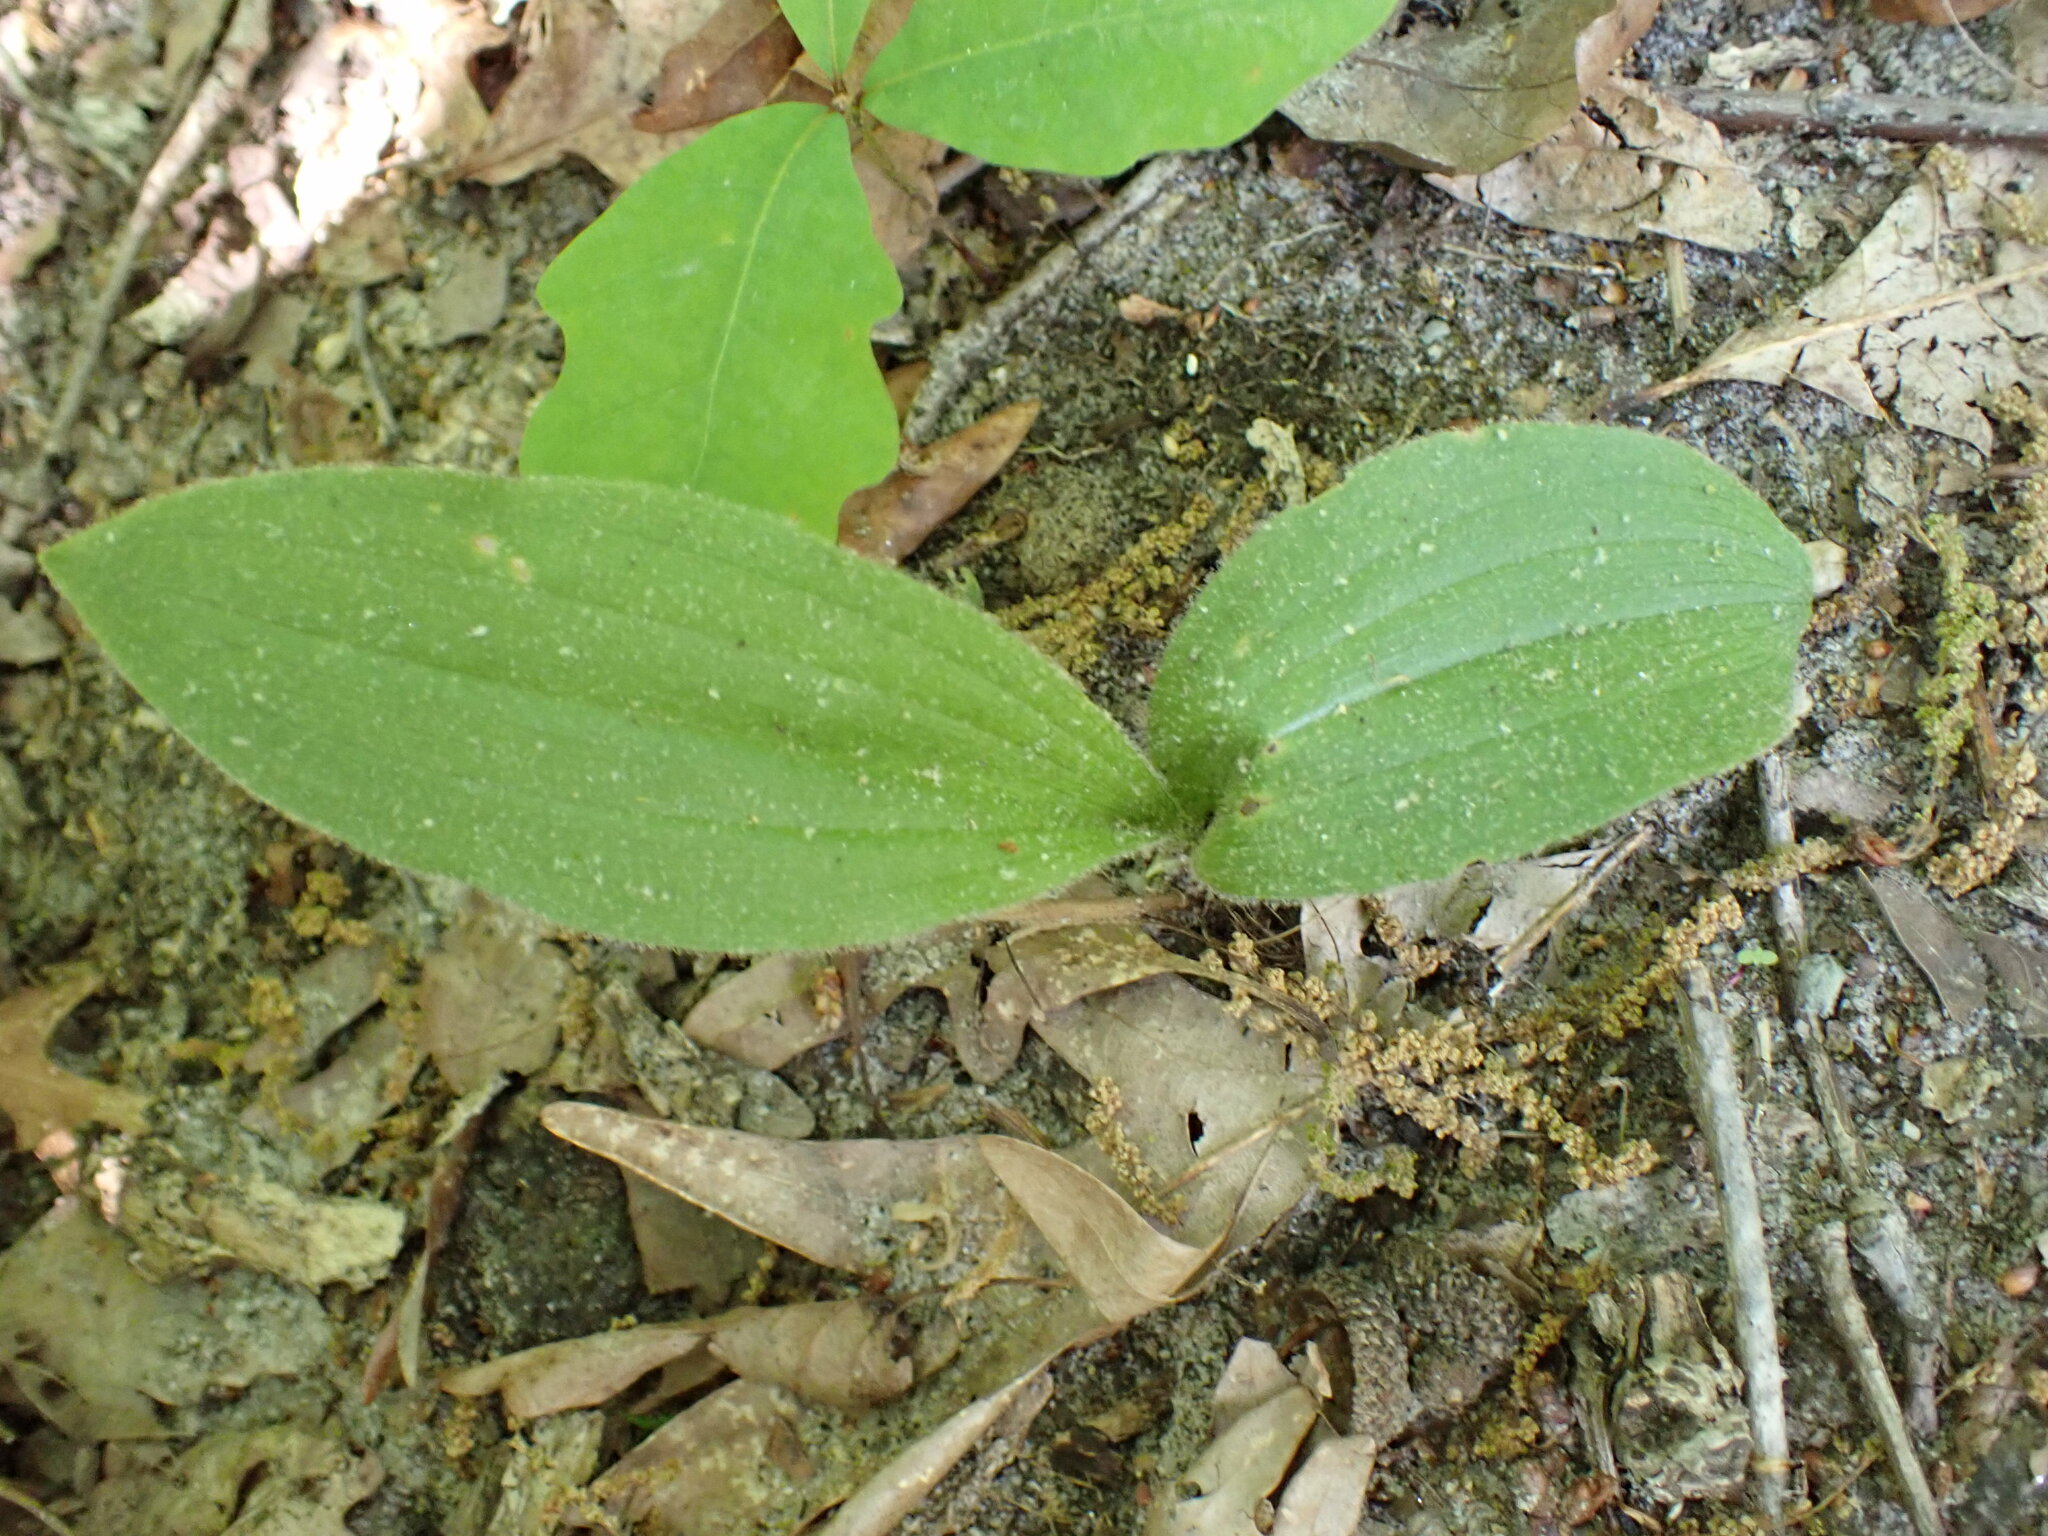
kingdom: Plantae
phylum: Tracheophyta
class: Liliopsida
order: Asparagales
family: Orchidaceae
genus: Cypripedium
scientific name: Cypripedium acaule
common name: Pink lady's-slipper
